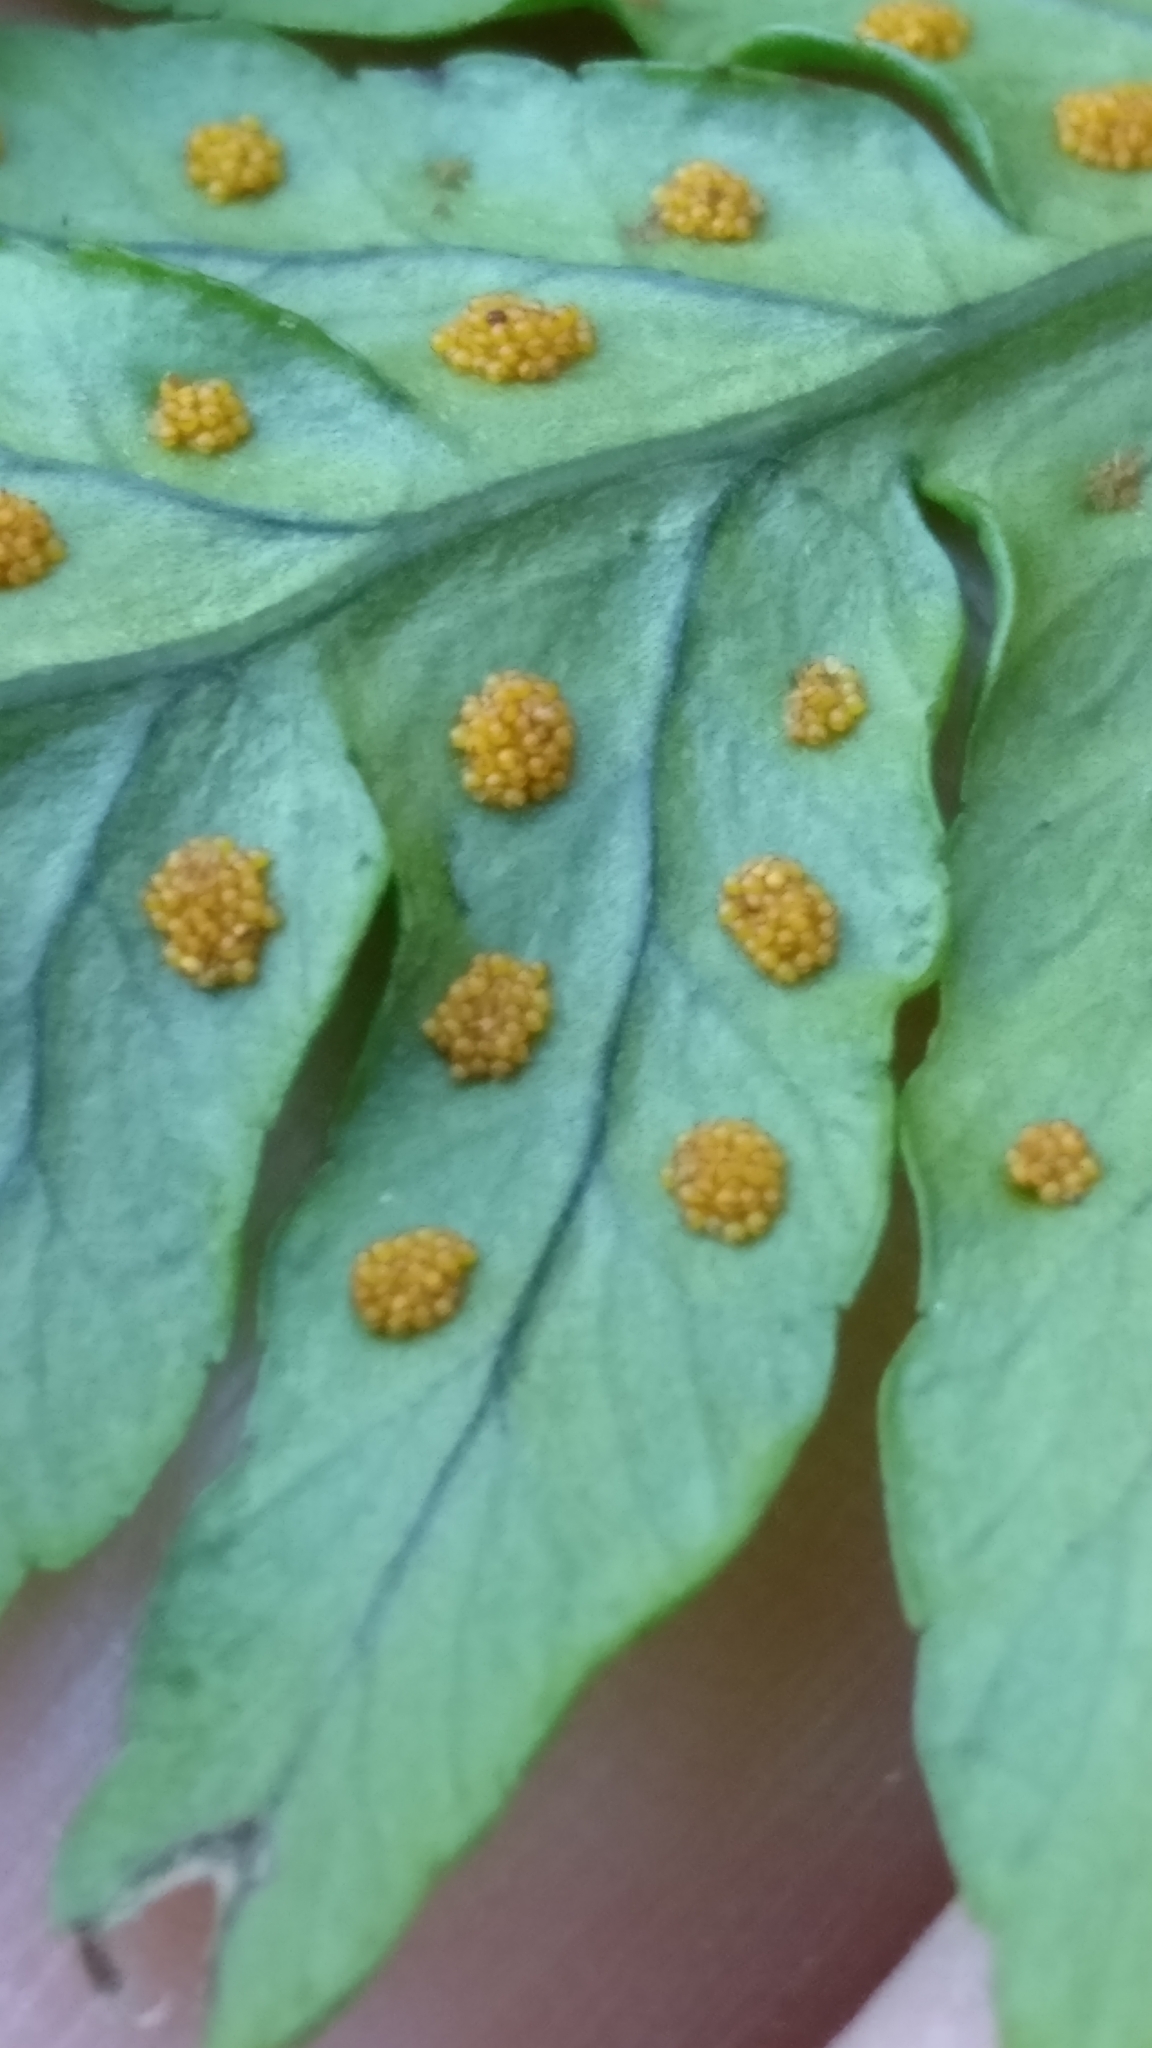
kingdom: Plantae
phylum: Tracheophyta
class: Polypodiopsida
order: Polypodiales
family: Polypodiaceae
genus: Polypodium
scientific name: Polypodium vulgare
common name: Common polypody
